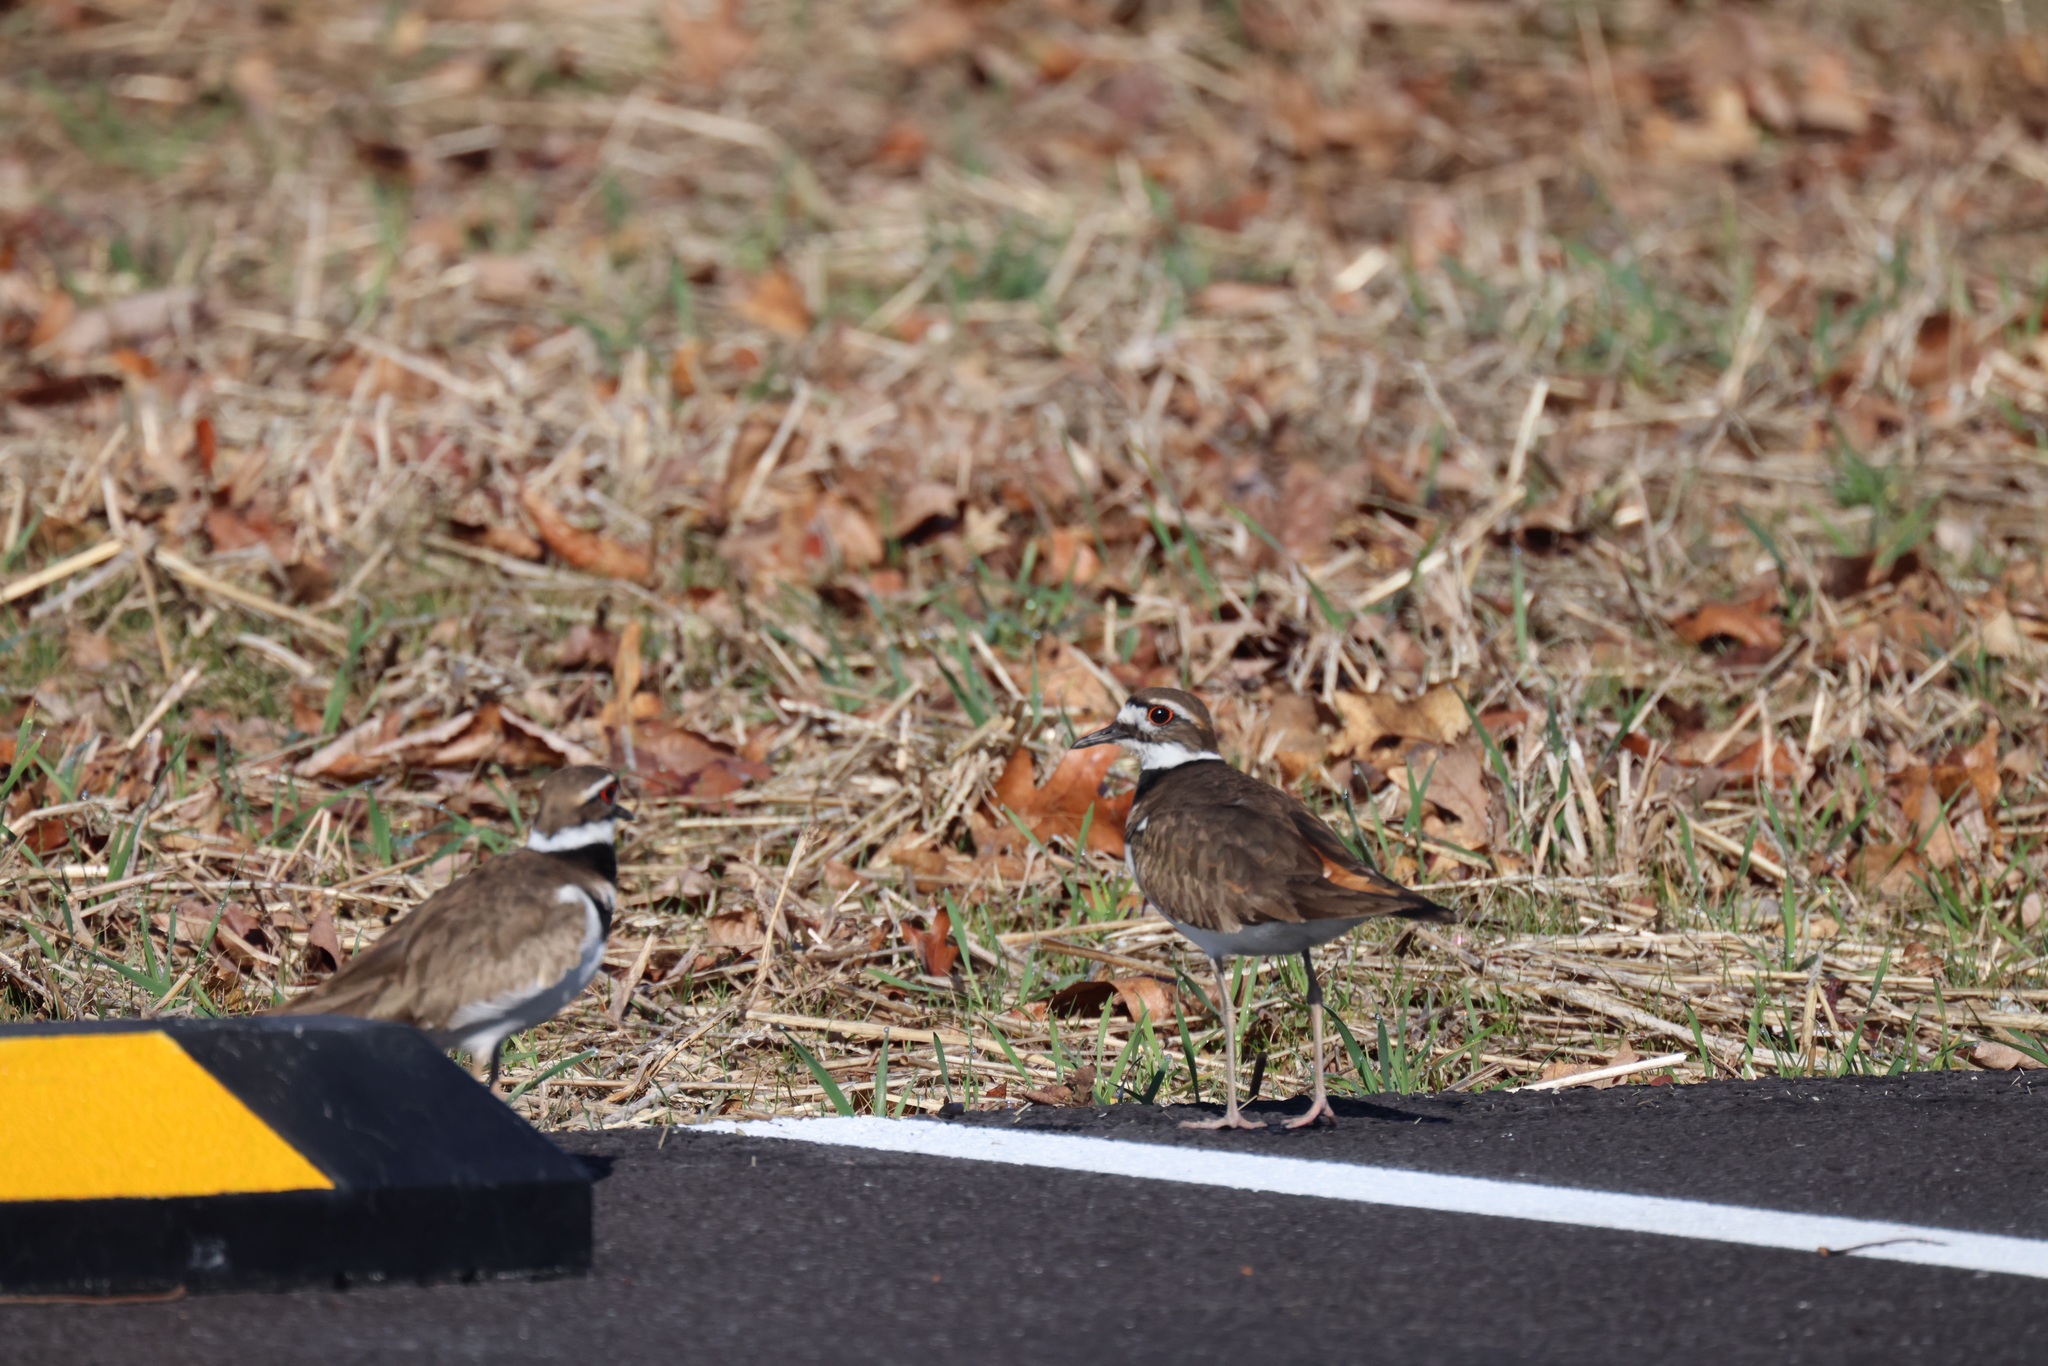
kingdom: Animalia
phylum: Chordata
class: Aves
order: Charadriiformes
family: Charadriidae
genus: Charadrius
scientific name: Charadrius vociferus
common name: Killdeer
